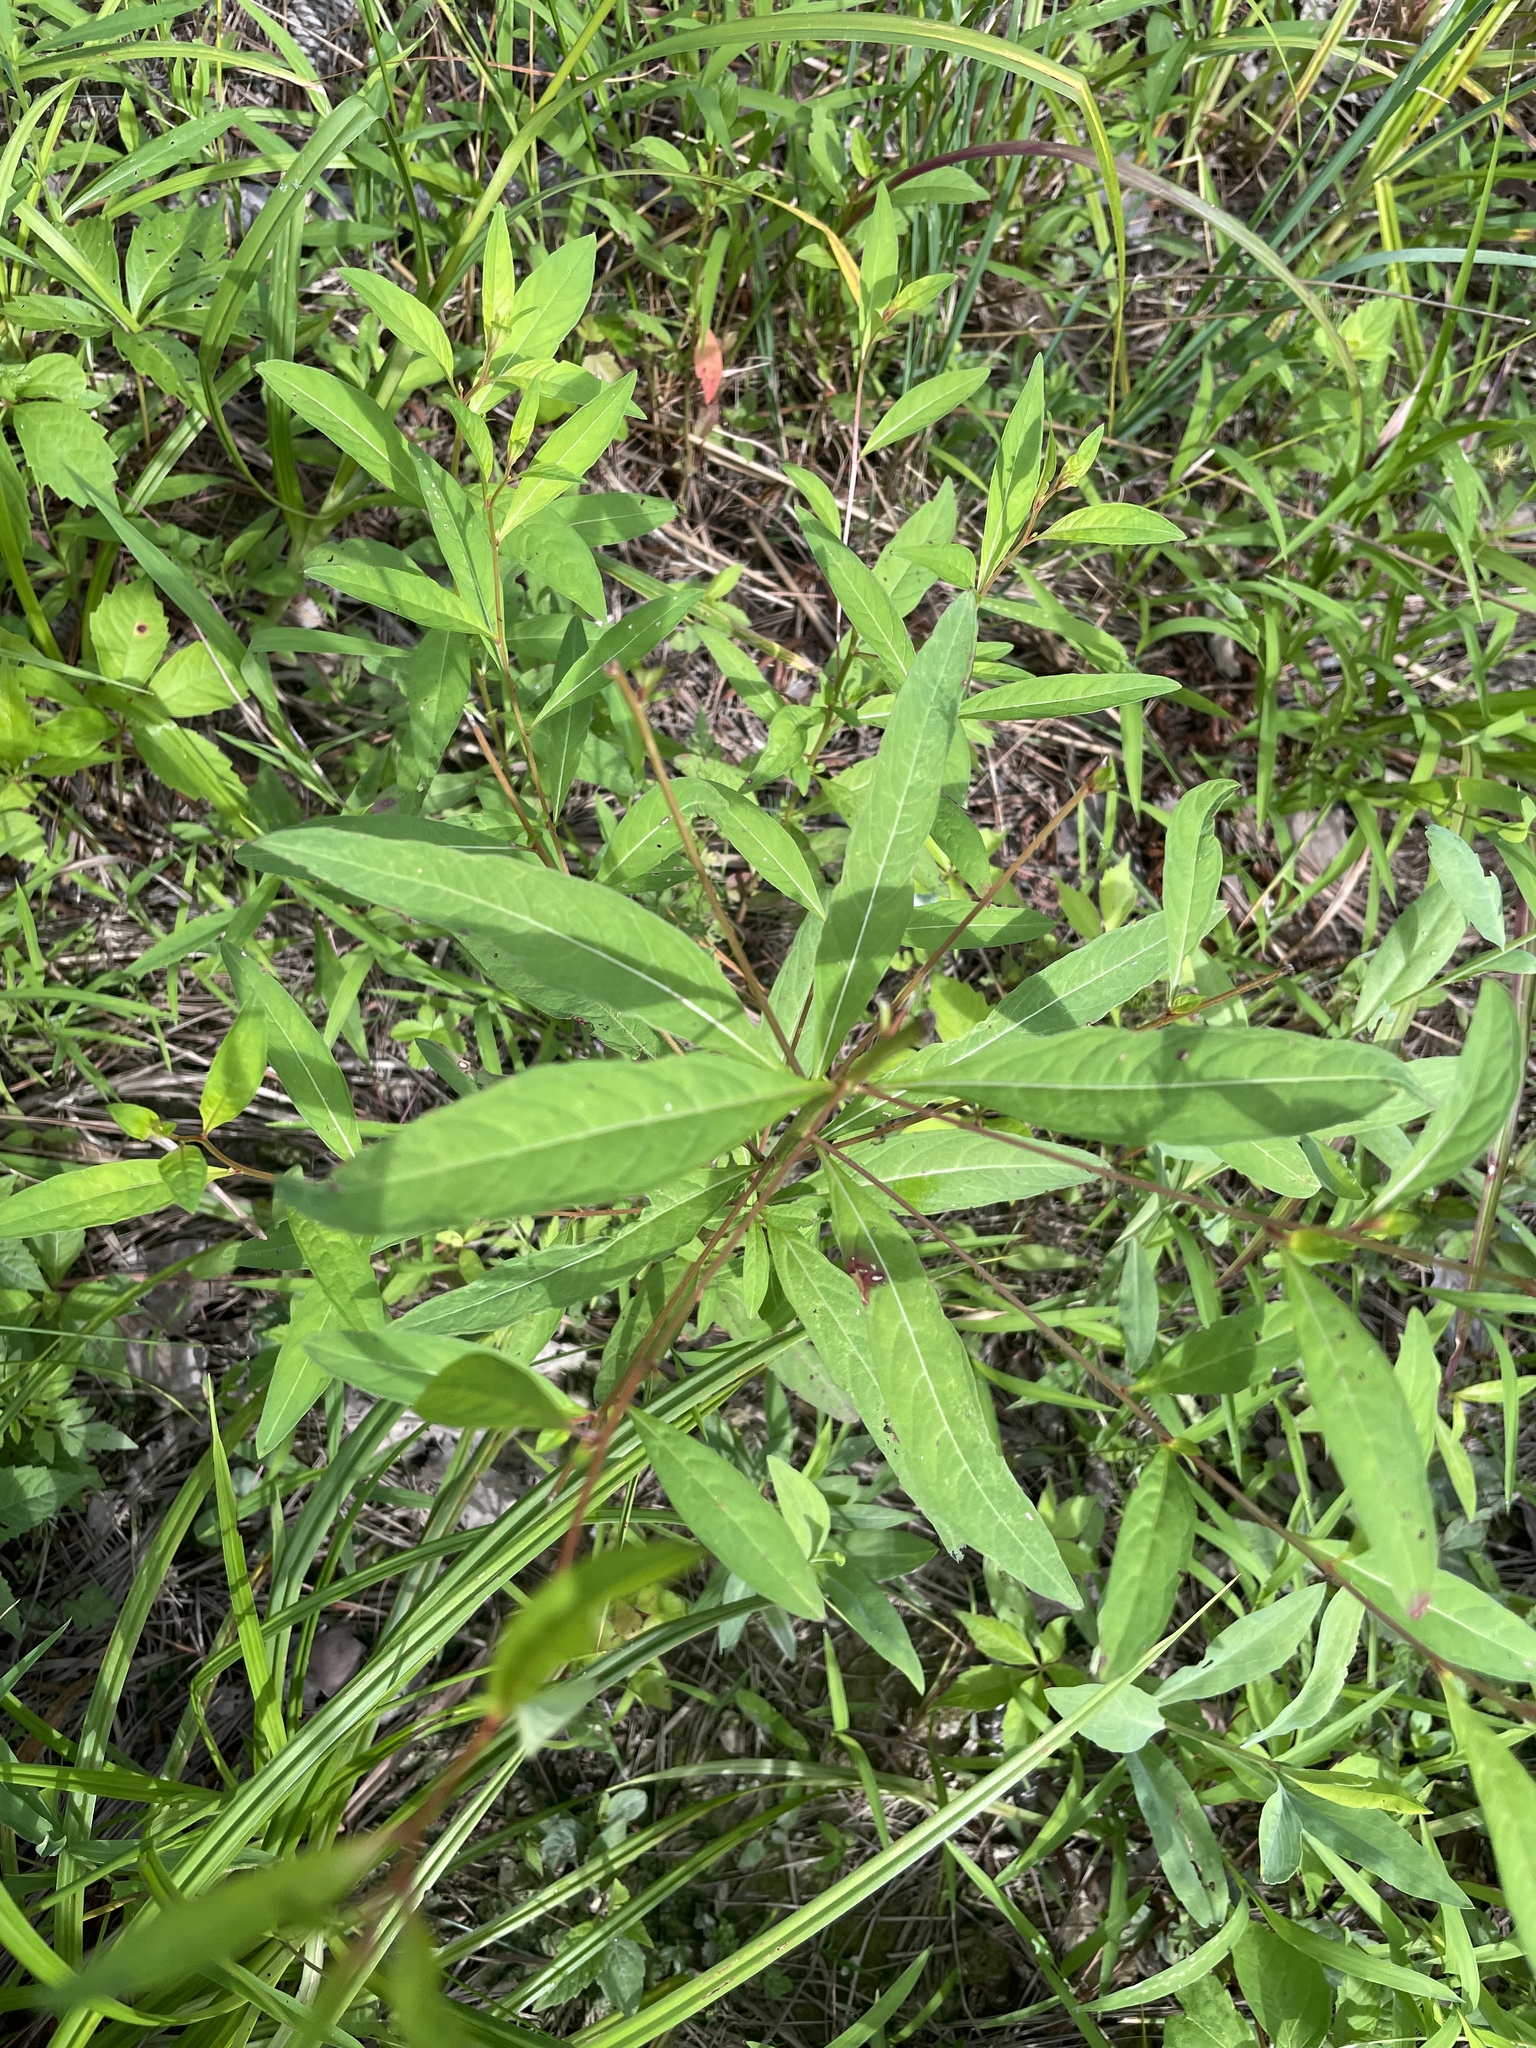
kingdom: Plantae
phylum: Tracheophyta
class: Magnoliopsida
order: Myrtales
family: Onagraceae
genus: Ludwigia
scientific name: Ludwigia alternifolia
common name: Rattlebox
